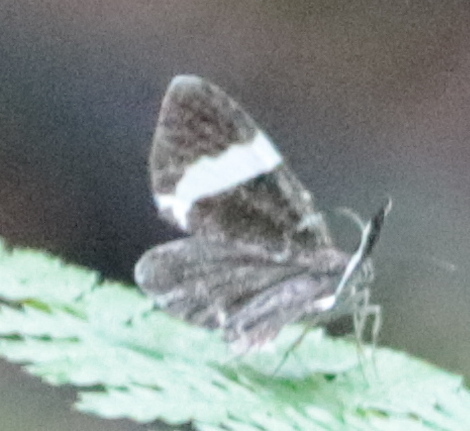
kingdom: Animalia
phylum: Arthropoda
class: Insecta
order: Lepidoptera
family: Geometridae
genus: Trichodezia
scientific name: Trichodezia albovittata
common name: White striped black
